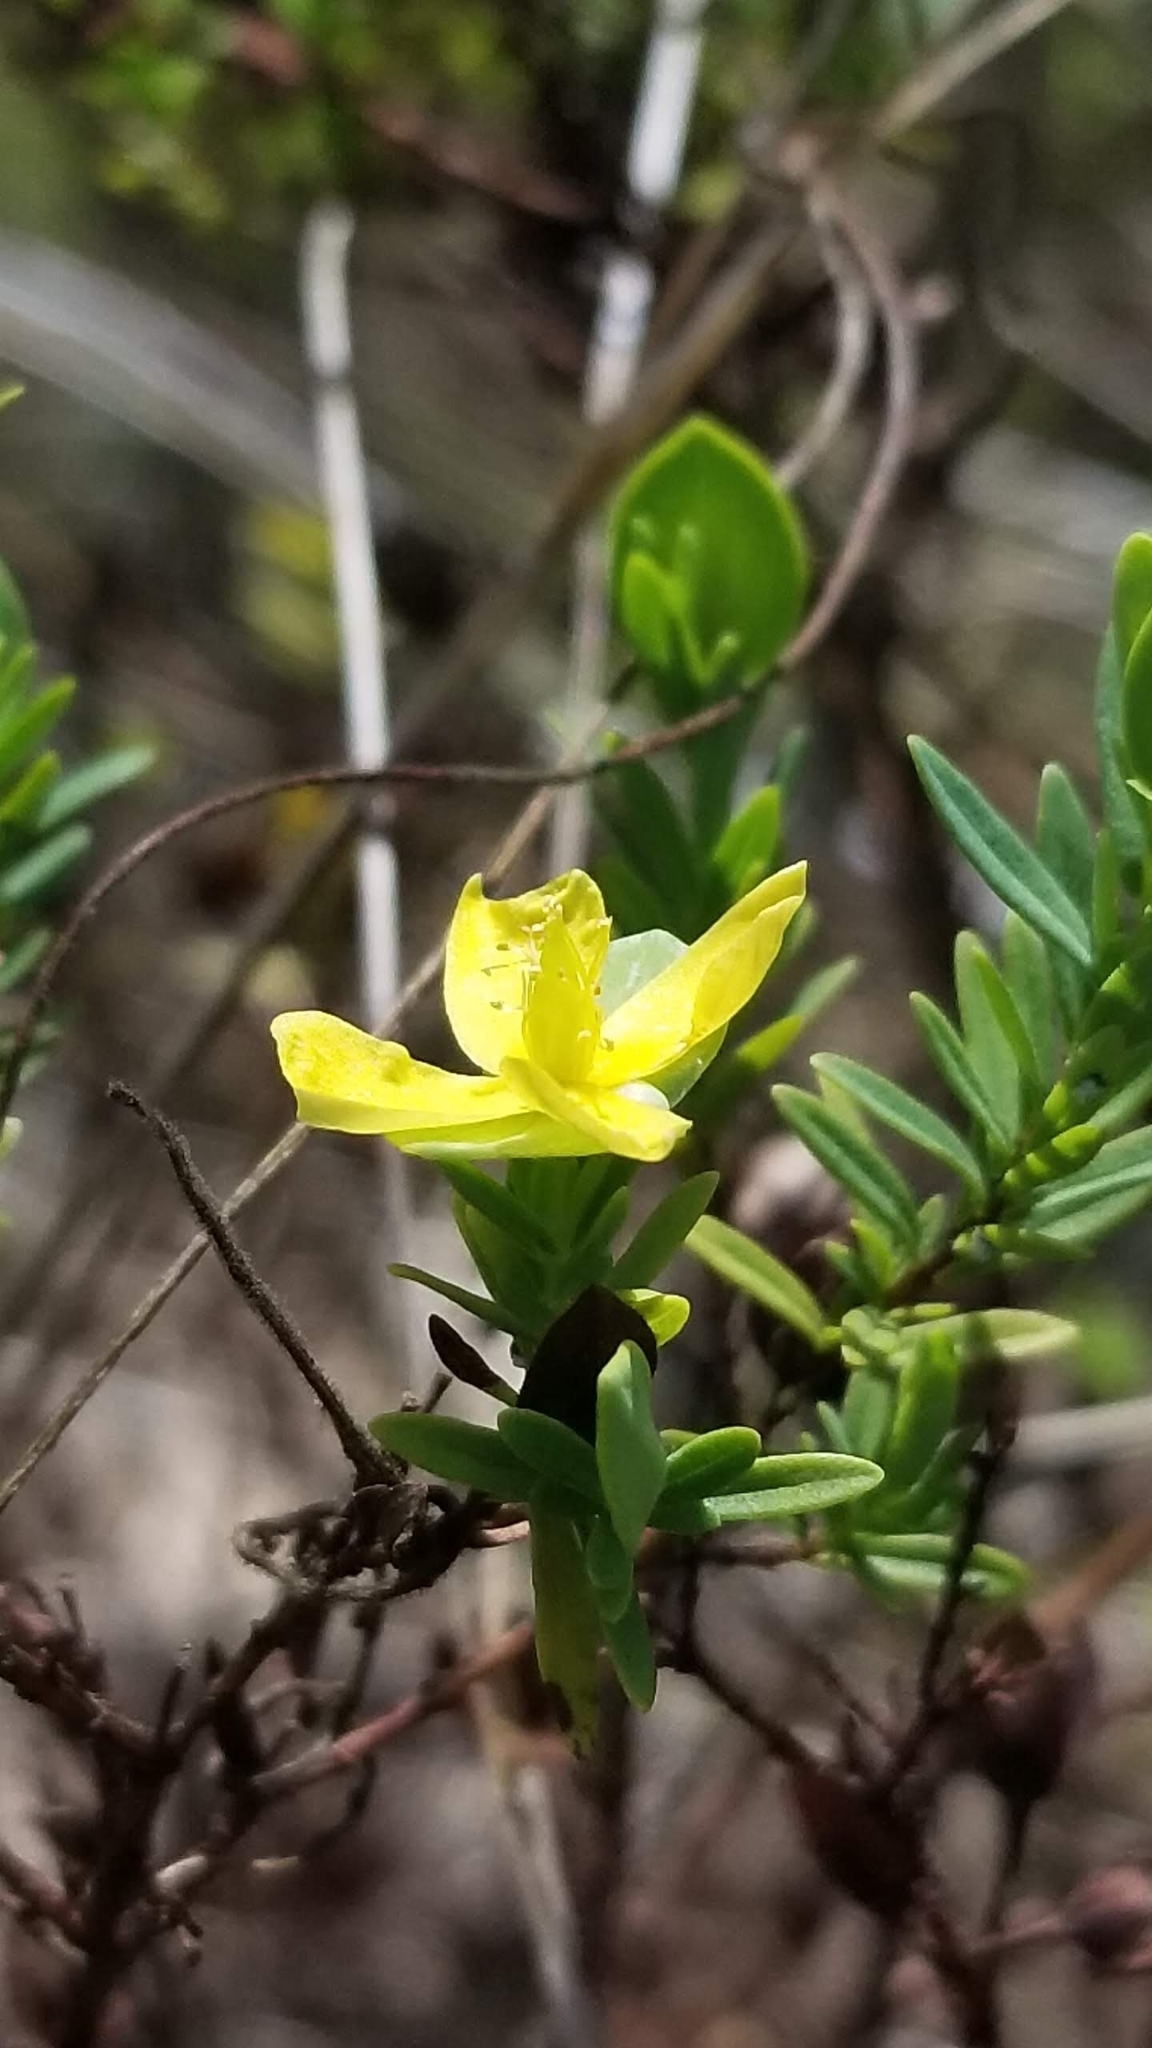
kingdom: Plantae
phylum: Tracheophyta
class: Magnoliopsida
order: Malpighiales
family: Hypericaceae
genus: Hypericum
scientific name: Hypericum hypericoides
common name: St. andrew's cross
